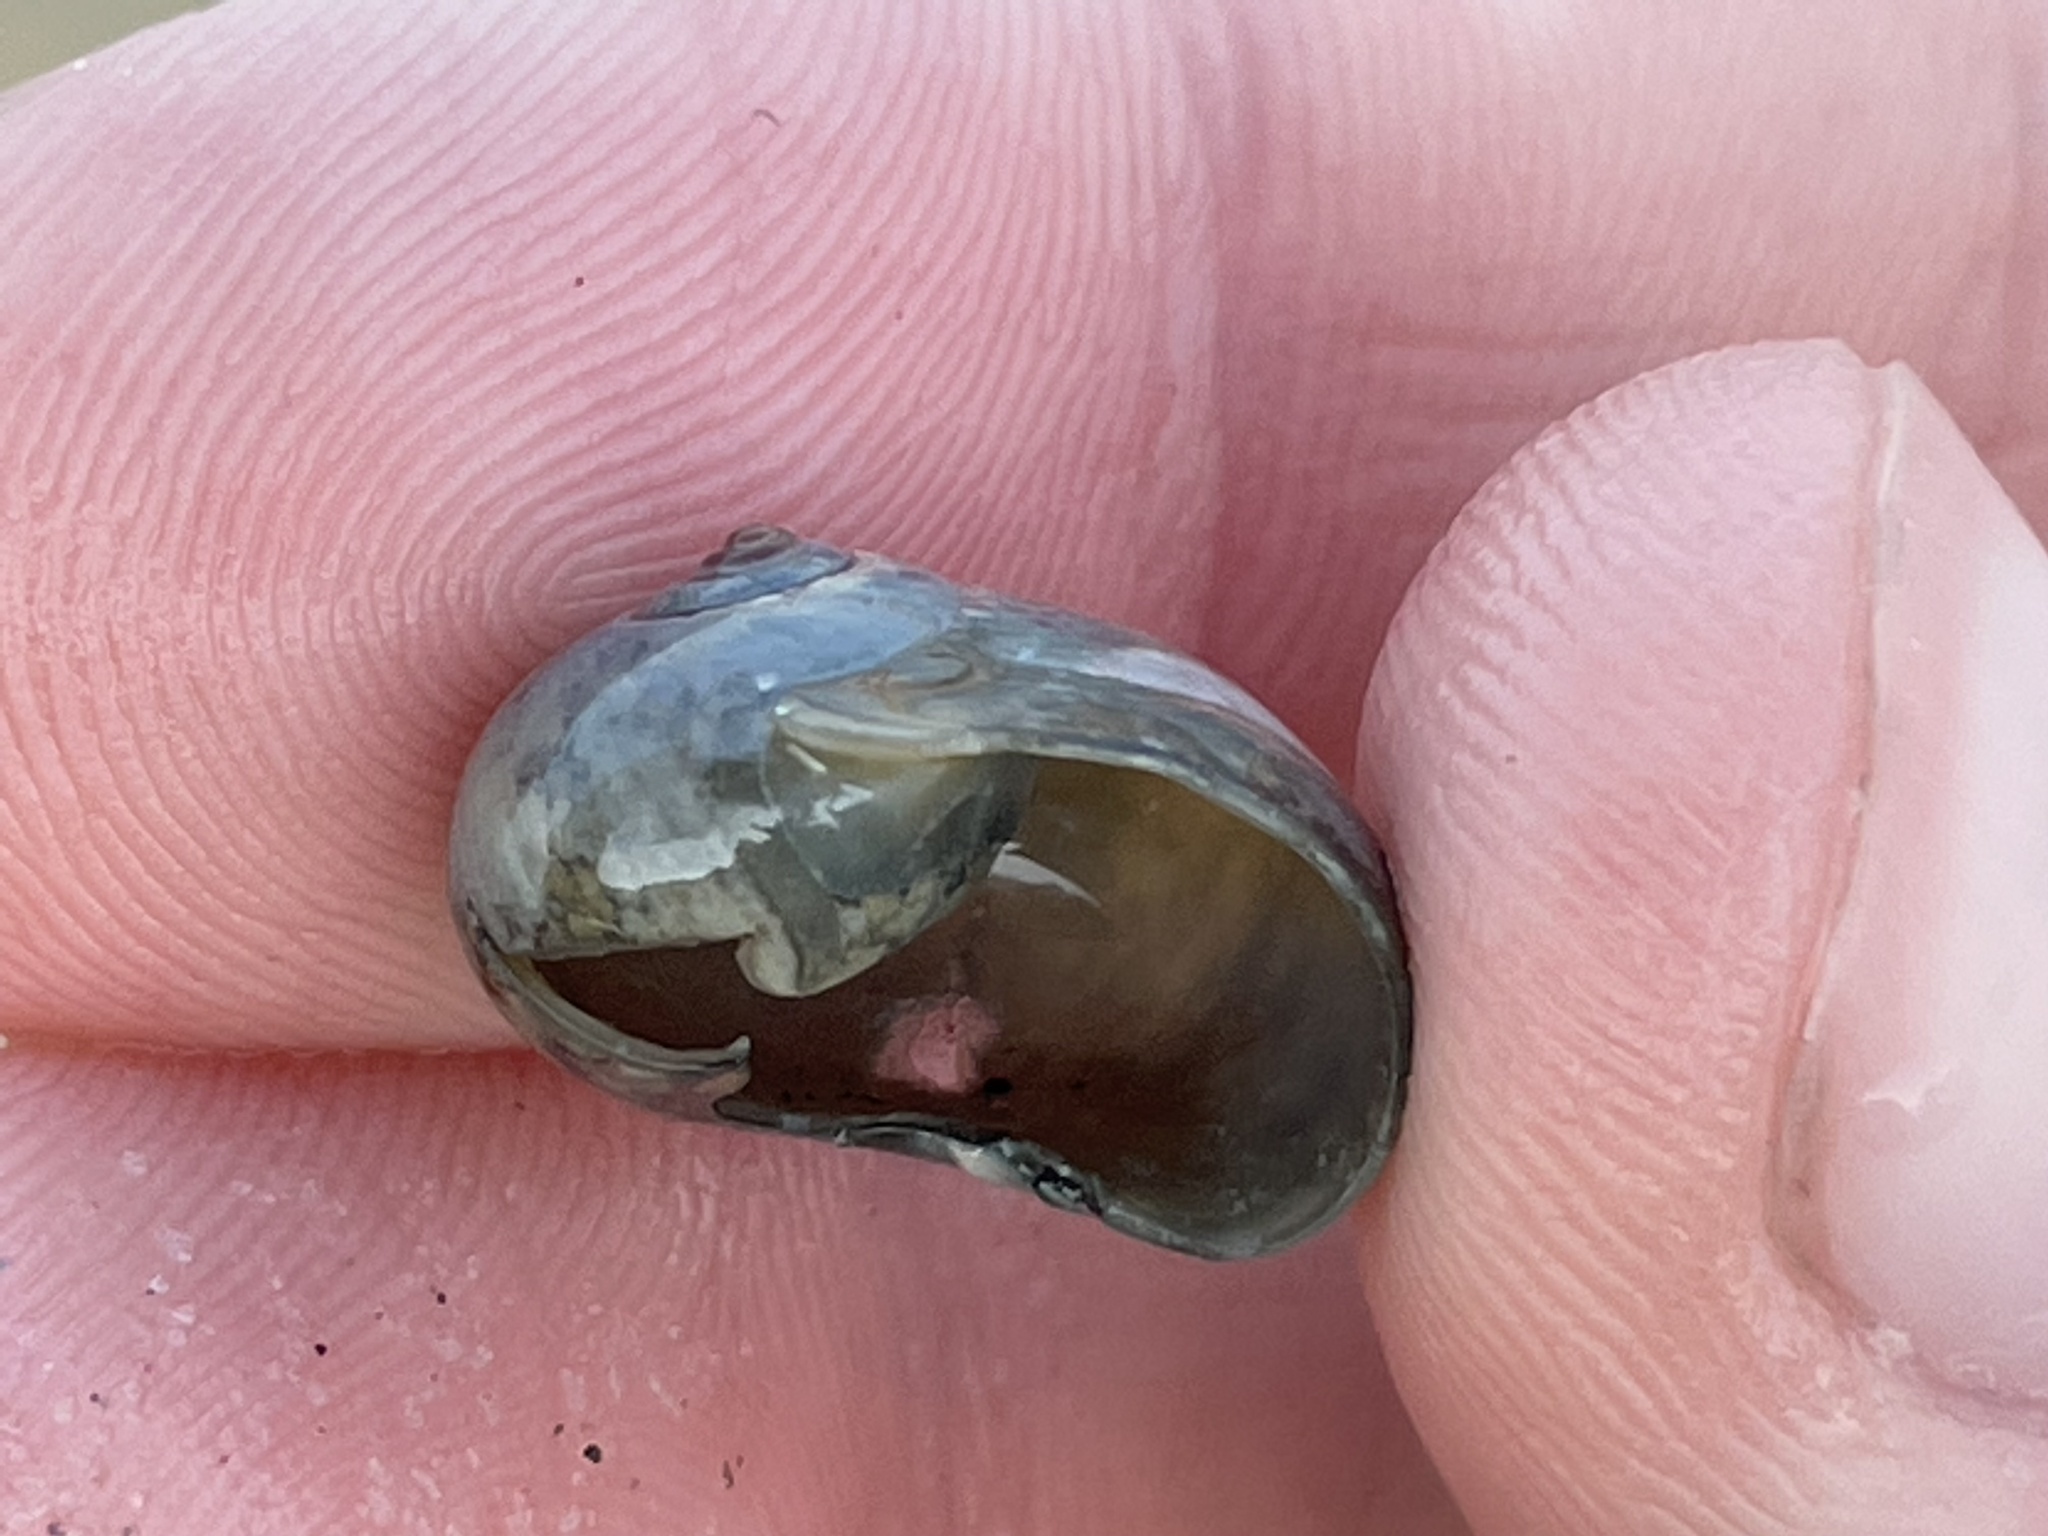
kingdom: Animalia
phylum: Mollusca
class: Gastropoda
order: Littorinimorpha
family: Naticidae
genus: Neverita
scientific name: Neverita duplicata
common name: Lobed moonsnail
